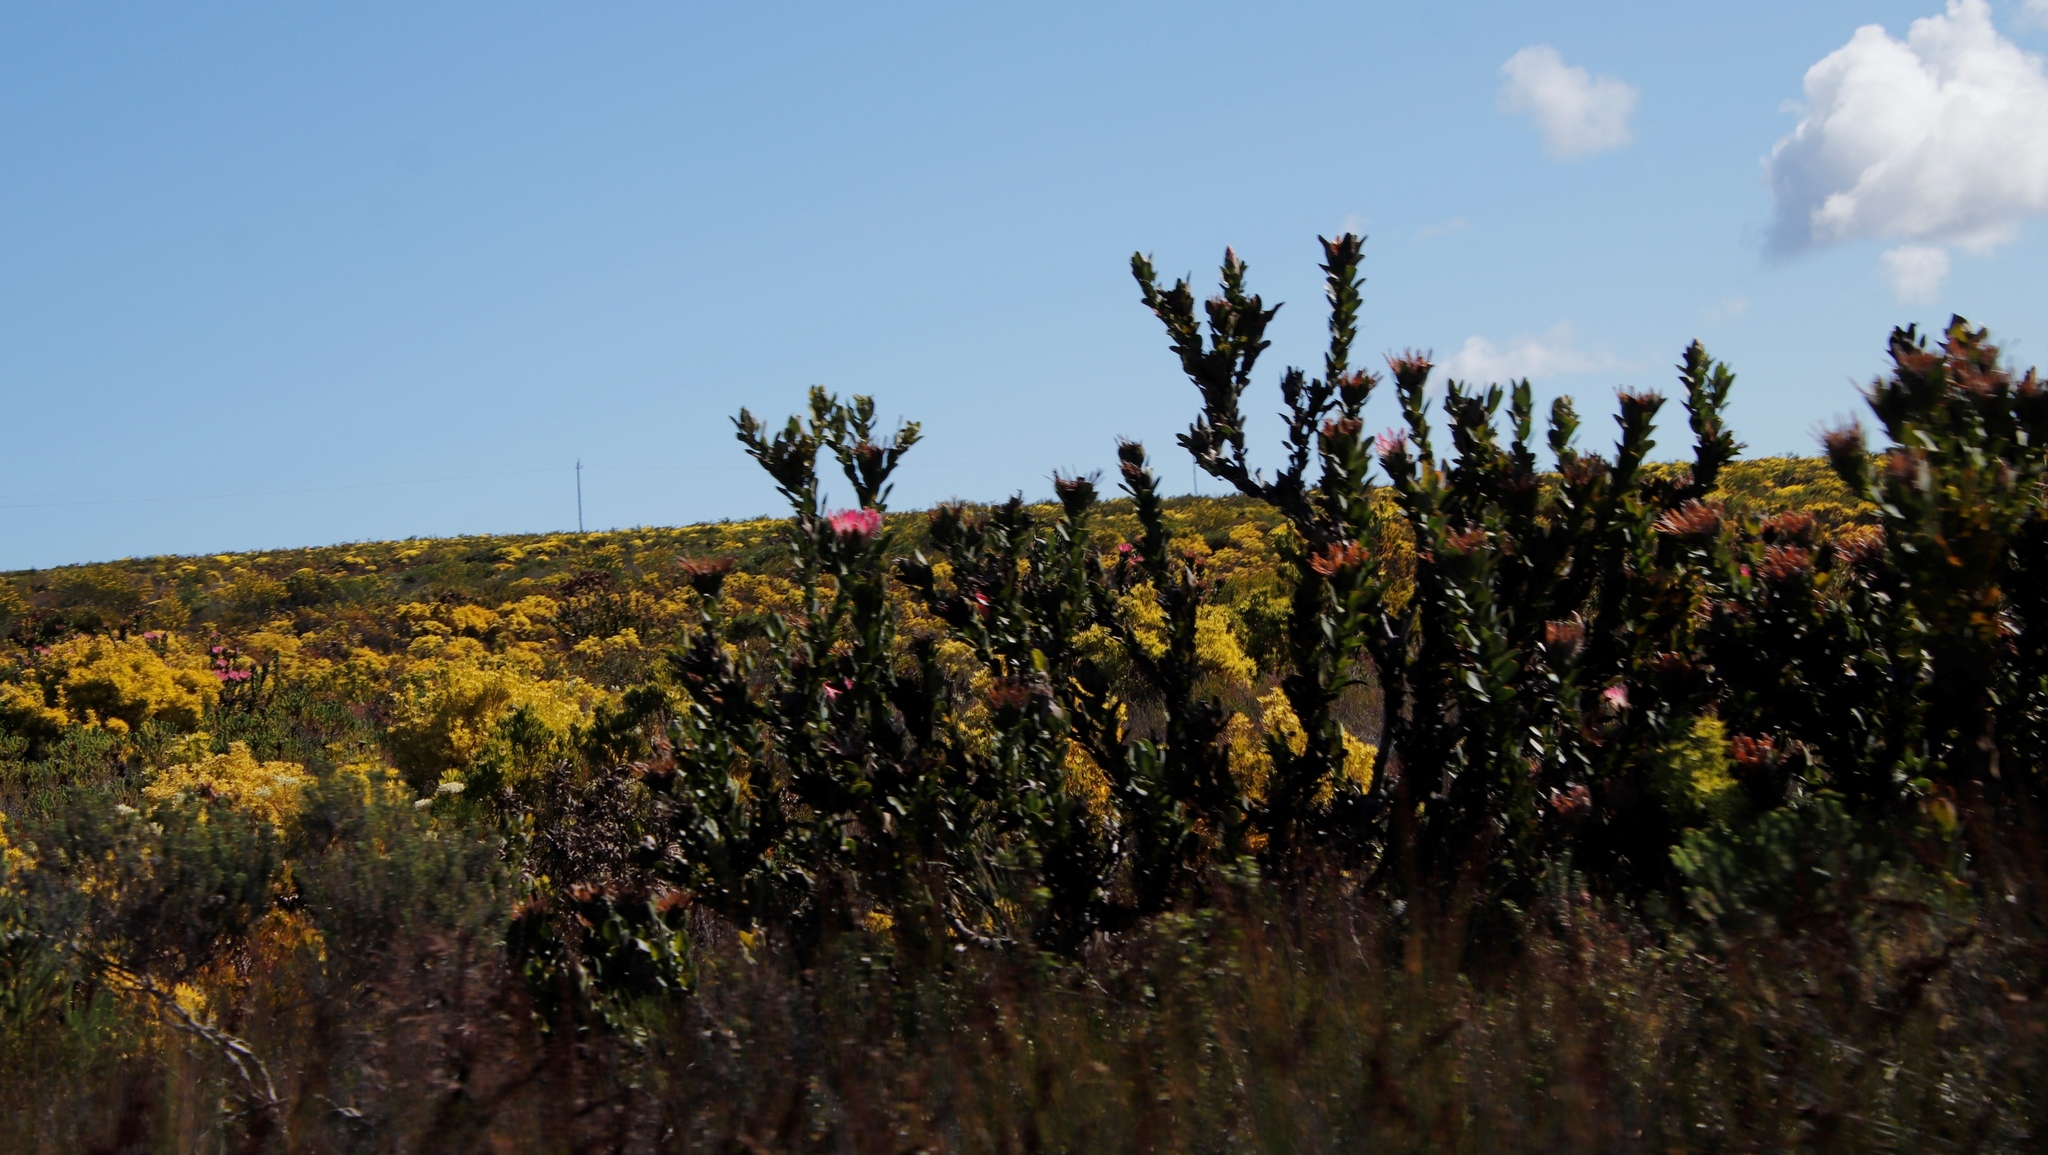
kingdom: Plantae
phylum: Tracheophyta
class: Magnoliopsida
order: Proteales
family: Proteaceae
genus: Protea
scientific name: Protea compacta
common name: Bot river protea
